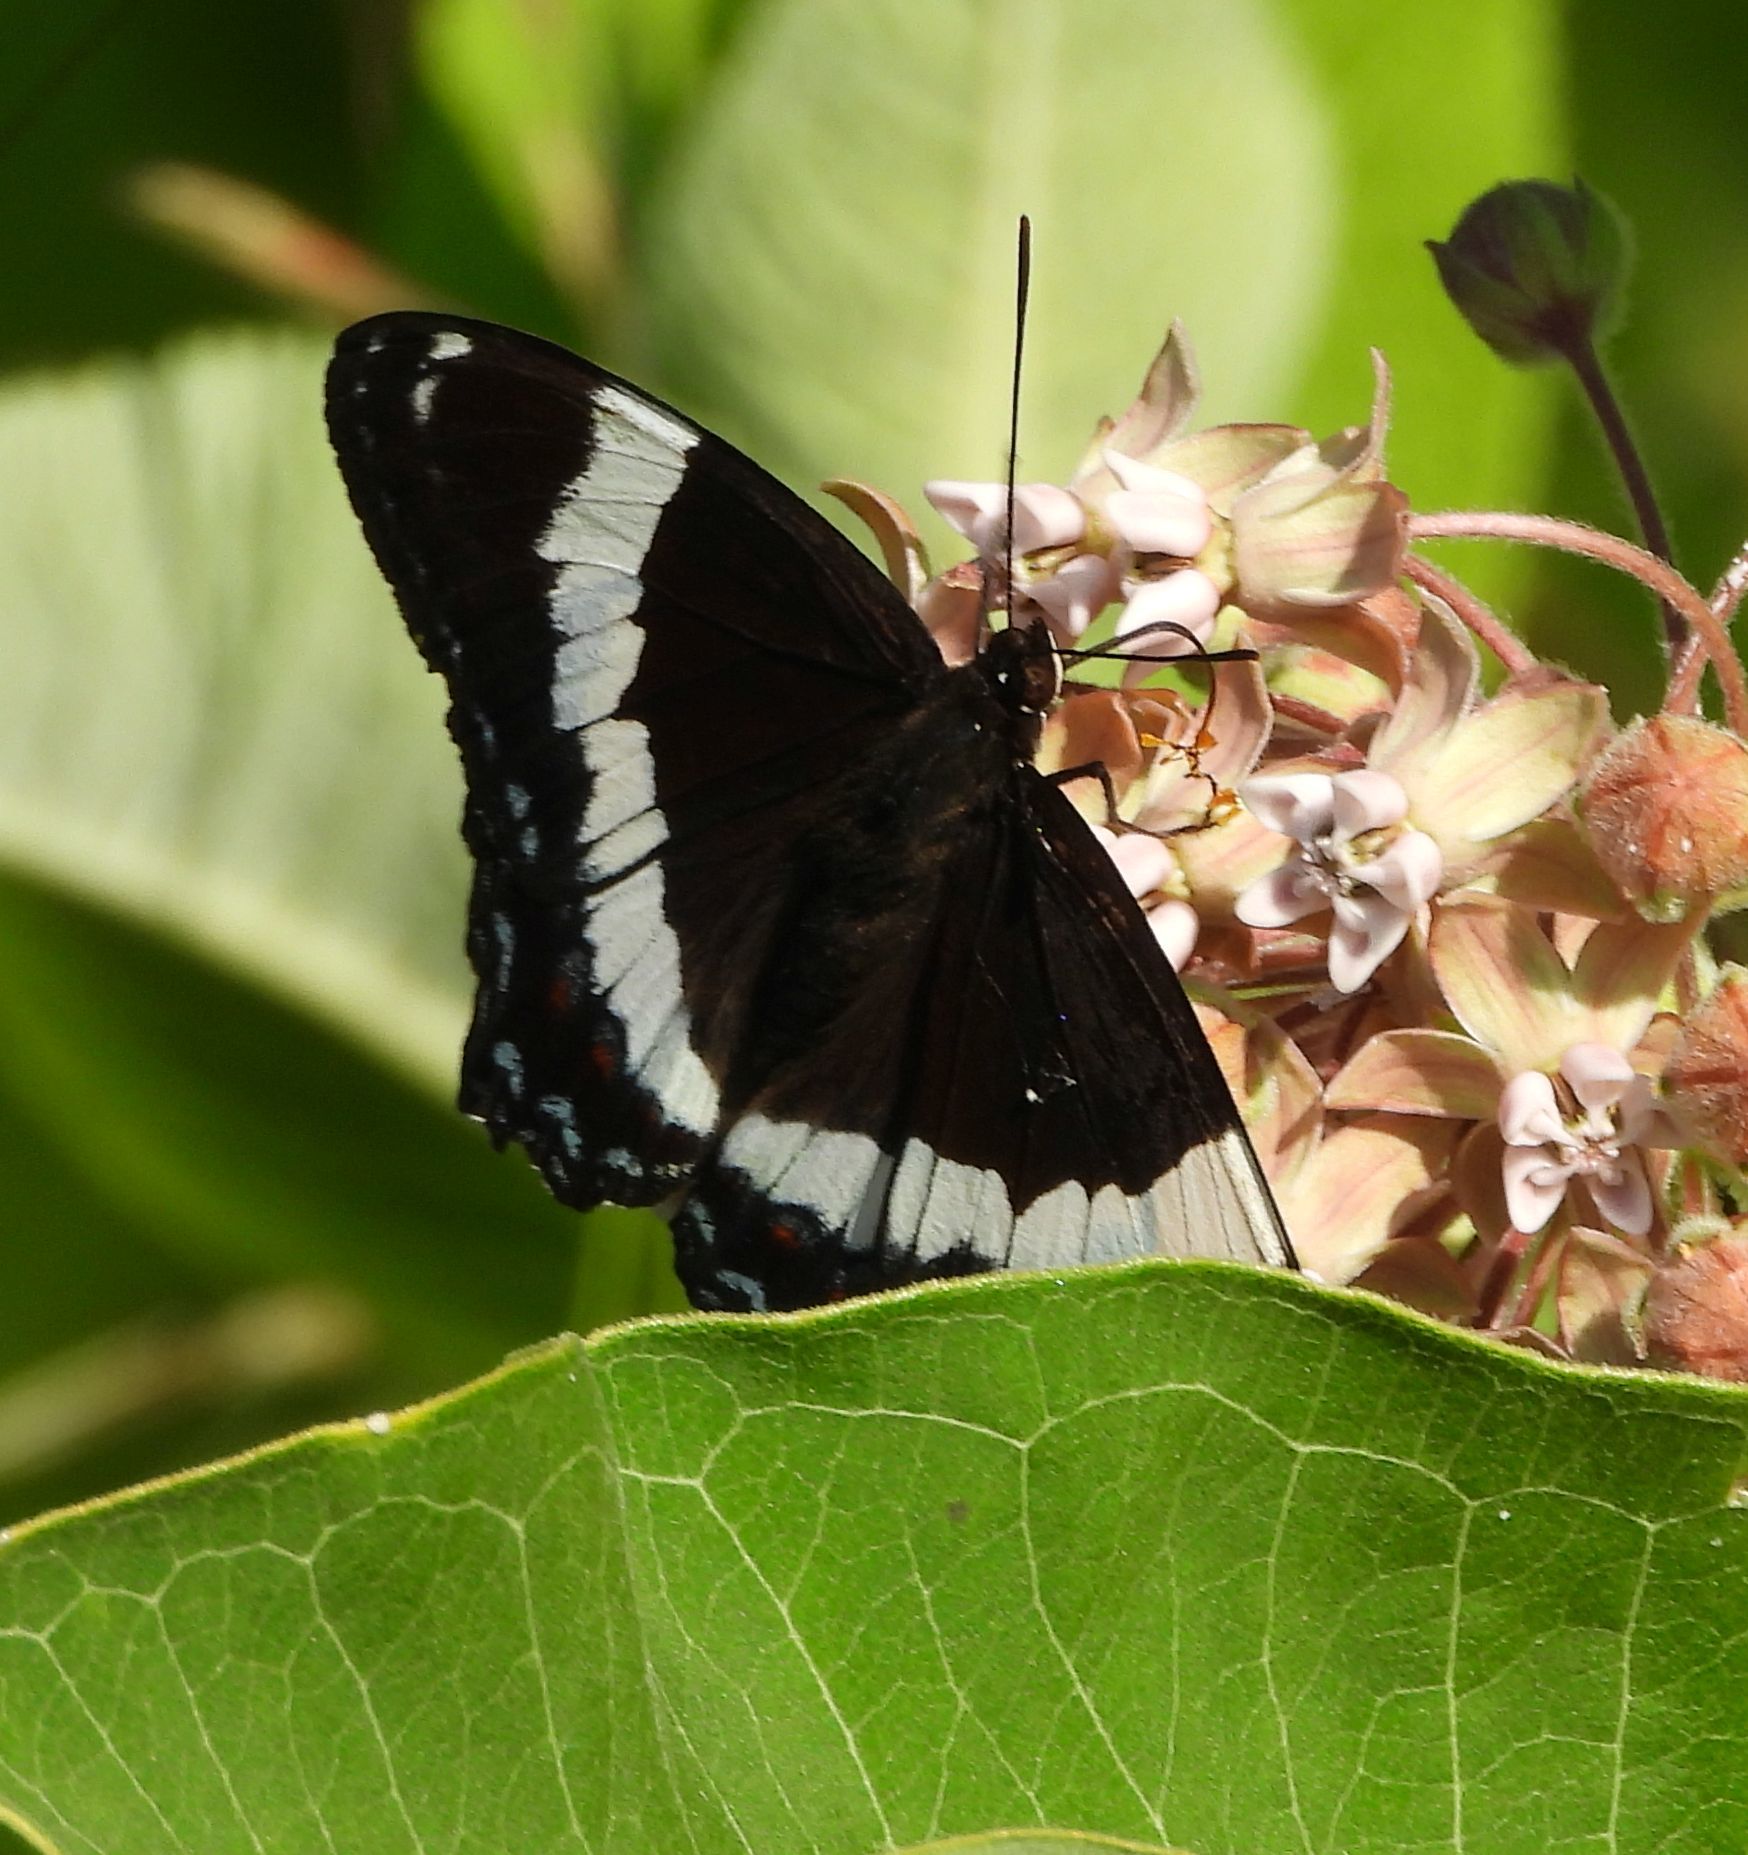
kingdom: Animalia
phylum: Arthropoda
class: Insecta
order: Lepidoptera
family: Nymphalidae
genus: Limenitis
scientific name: Limenitis arthemis
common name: Red-spotted admiral
